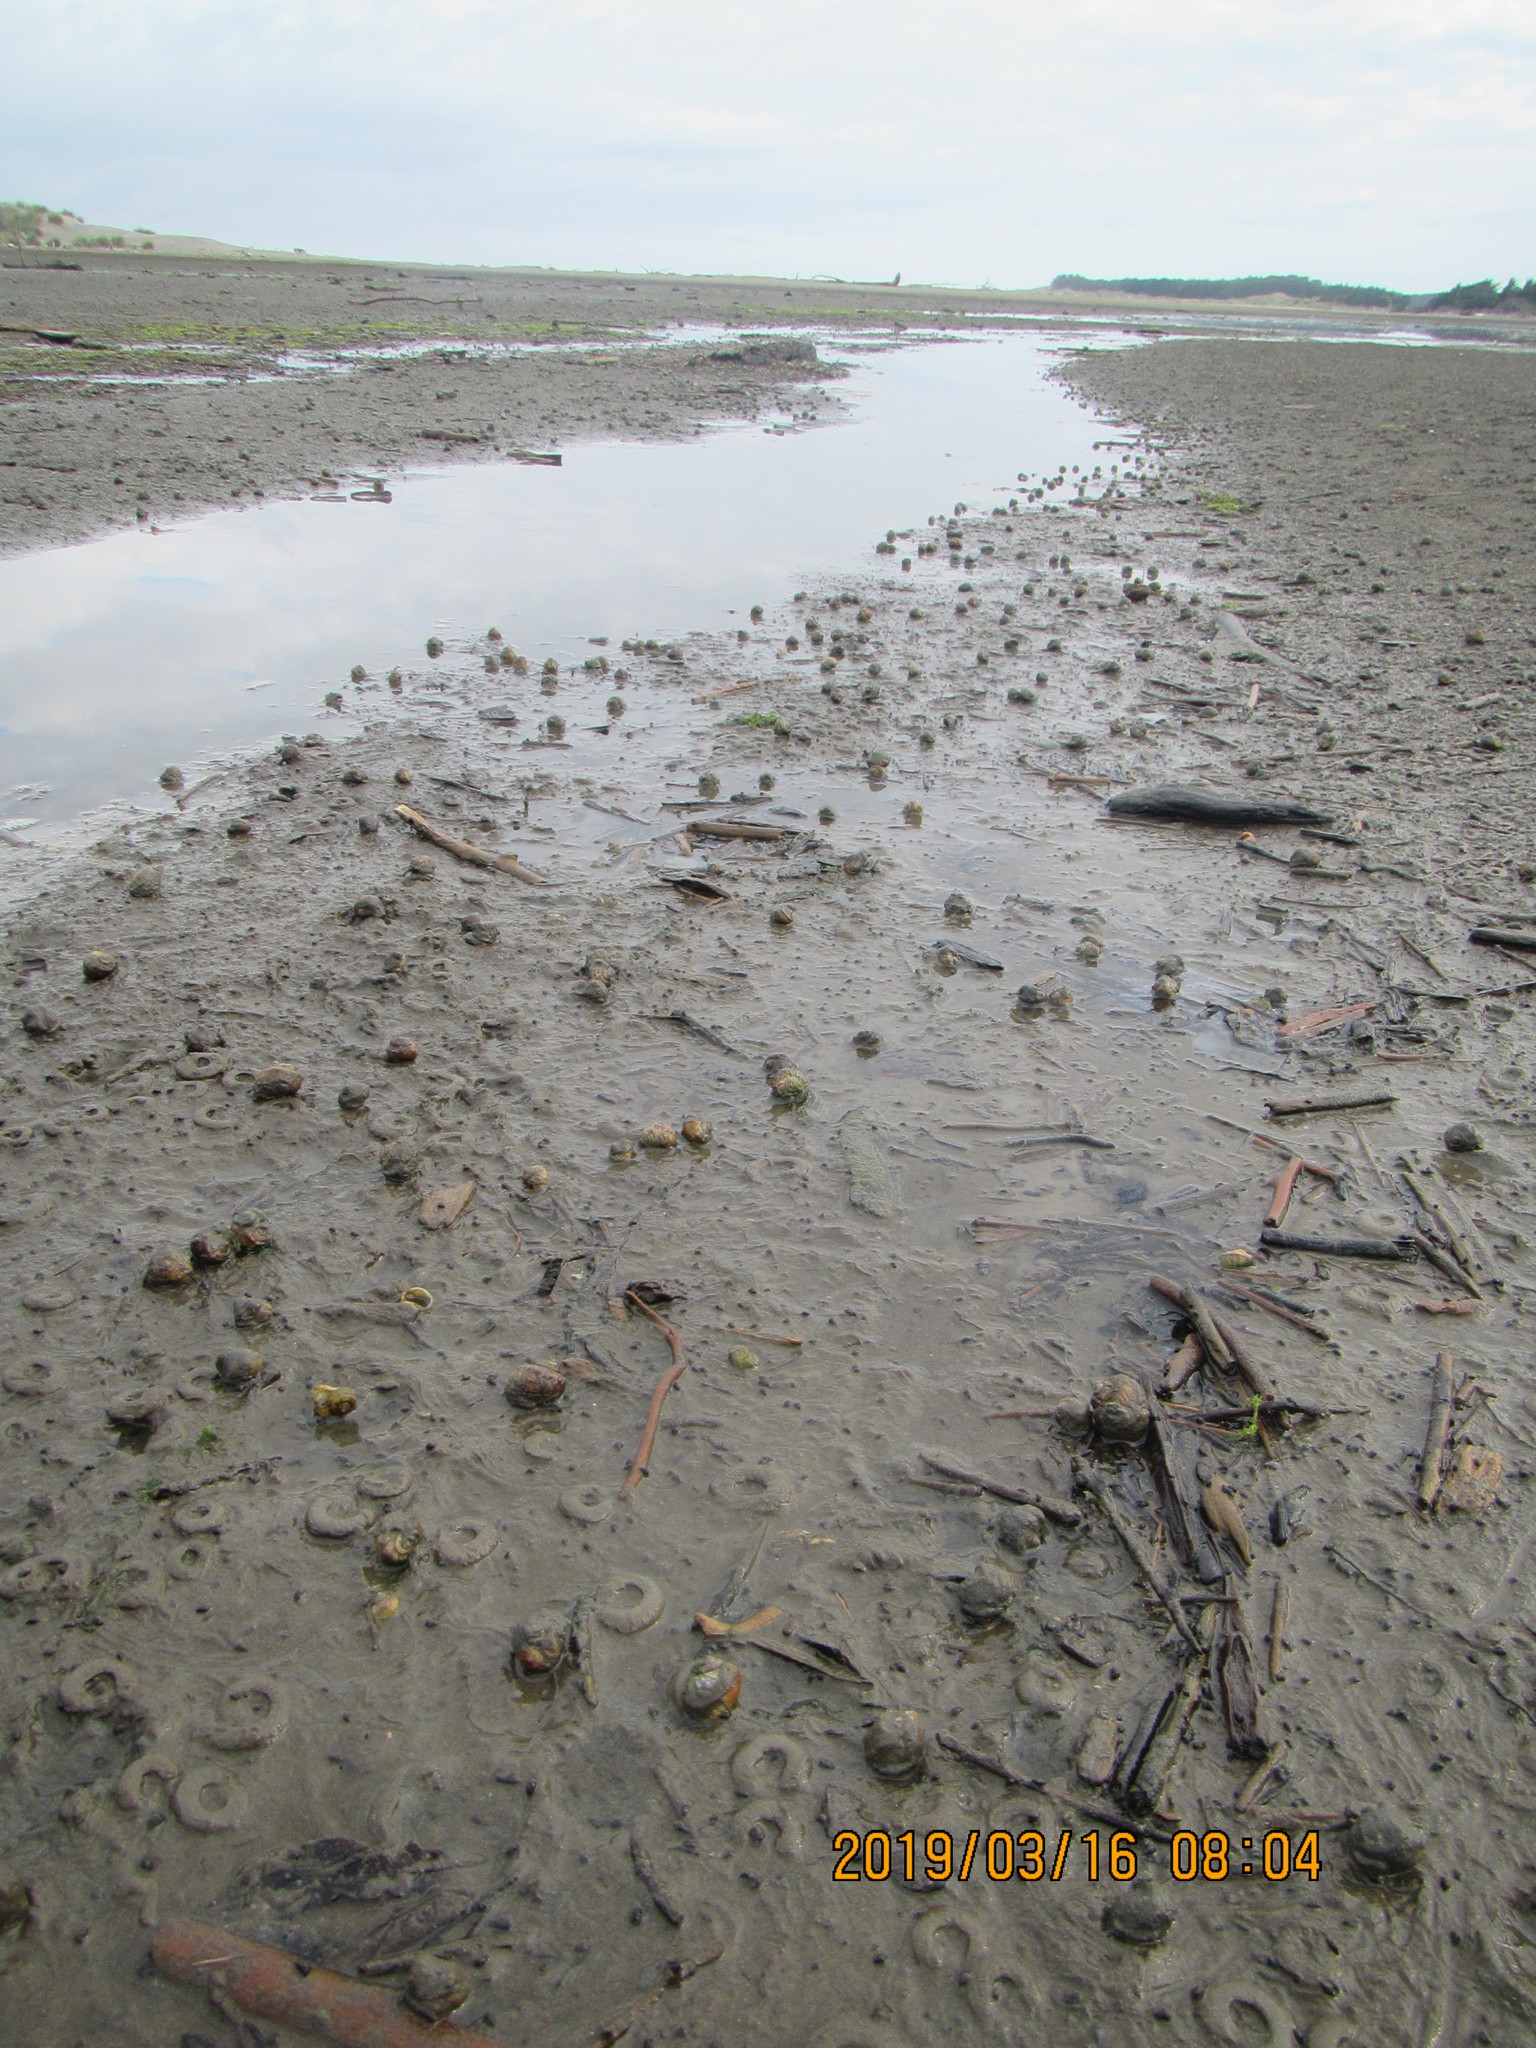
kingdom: Animalia
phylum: Mollusca
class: Gastropoda
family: Amphibolidae
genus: Amphibola
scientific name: Amphibola crenata
